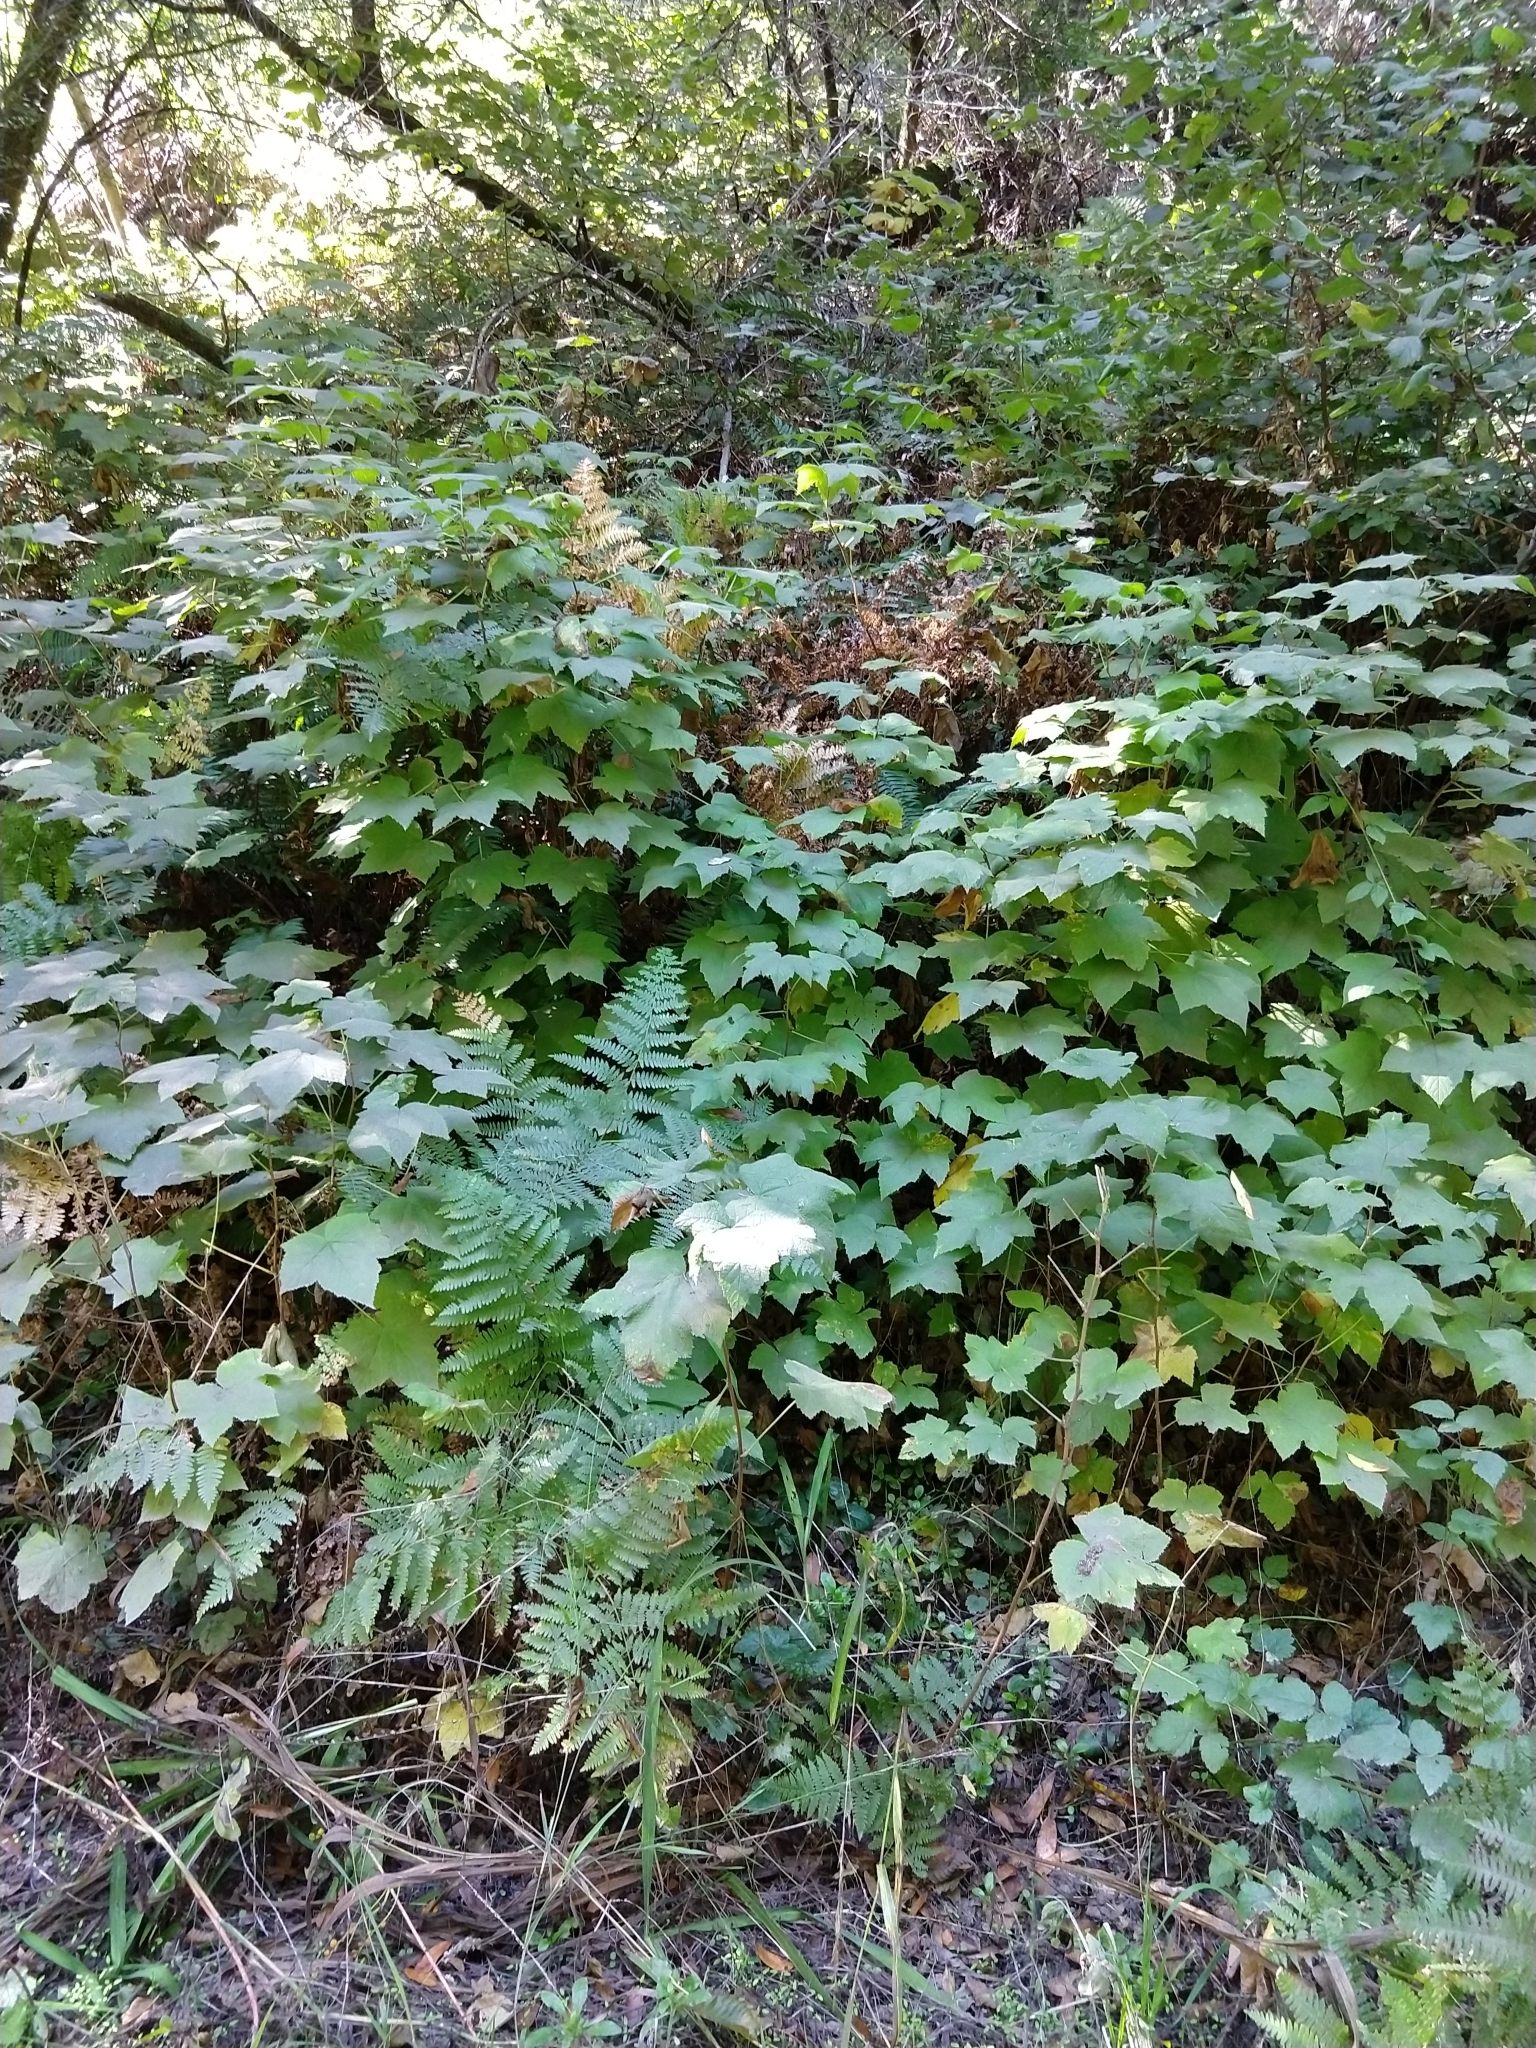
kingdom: Plantae
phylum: Tracheophyta
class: Magnoliopsida
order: Rosales
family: Rosaceae
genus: Rubus
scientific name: Rubus parviflorus
